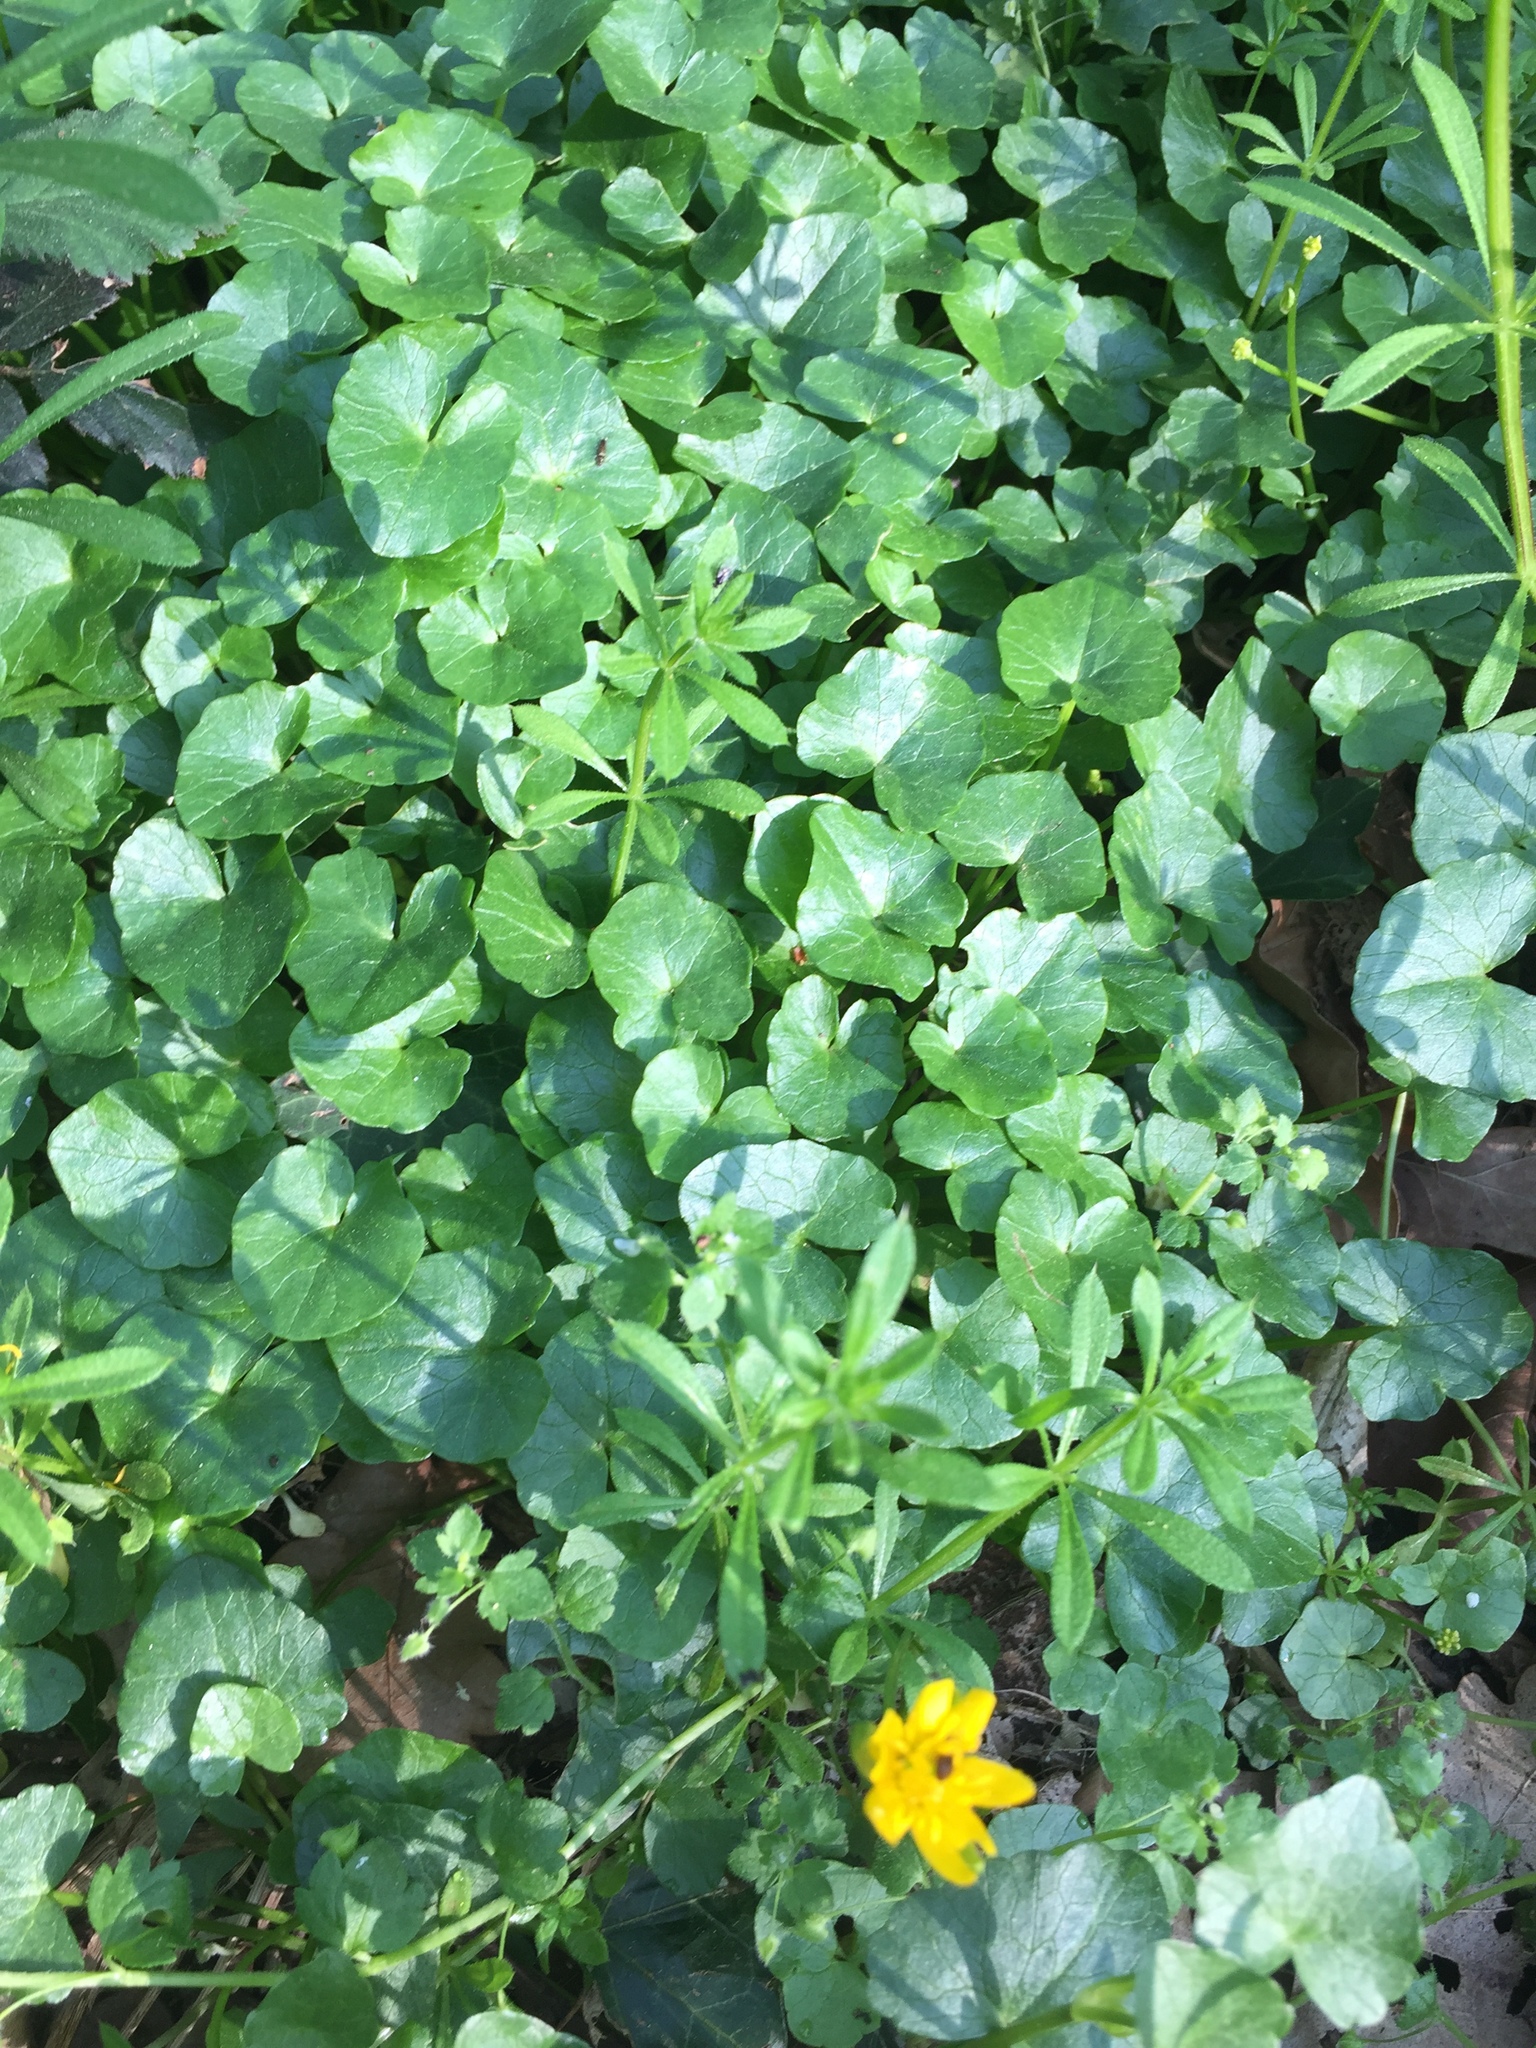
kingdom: Plantae
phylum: Tracheophyta
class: Magnoliopsida
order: Ranunculales
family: Ranunculaceae
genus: Ficaria
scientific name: Ficaria verna
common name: Lesser celandine
